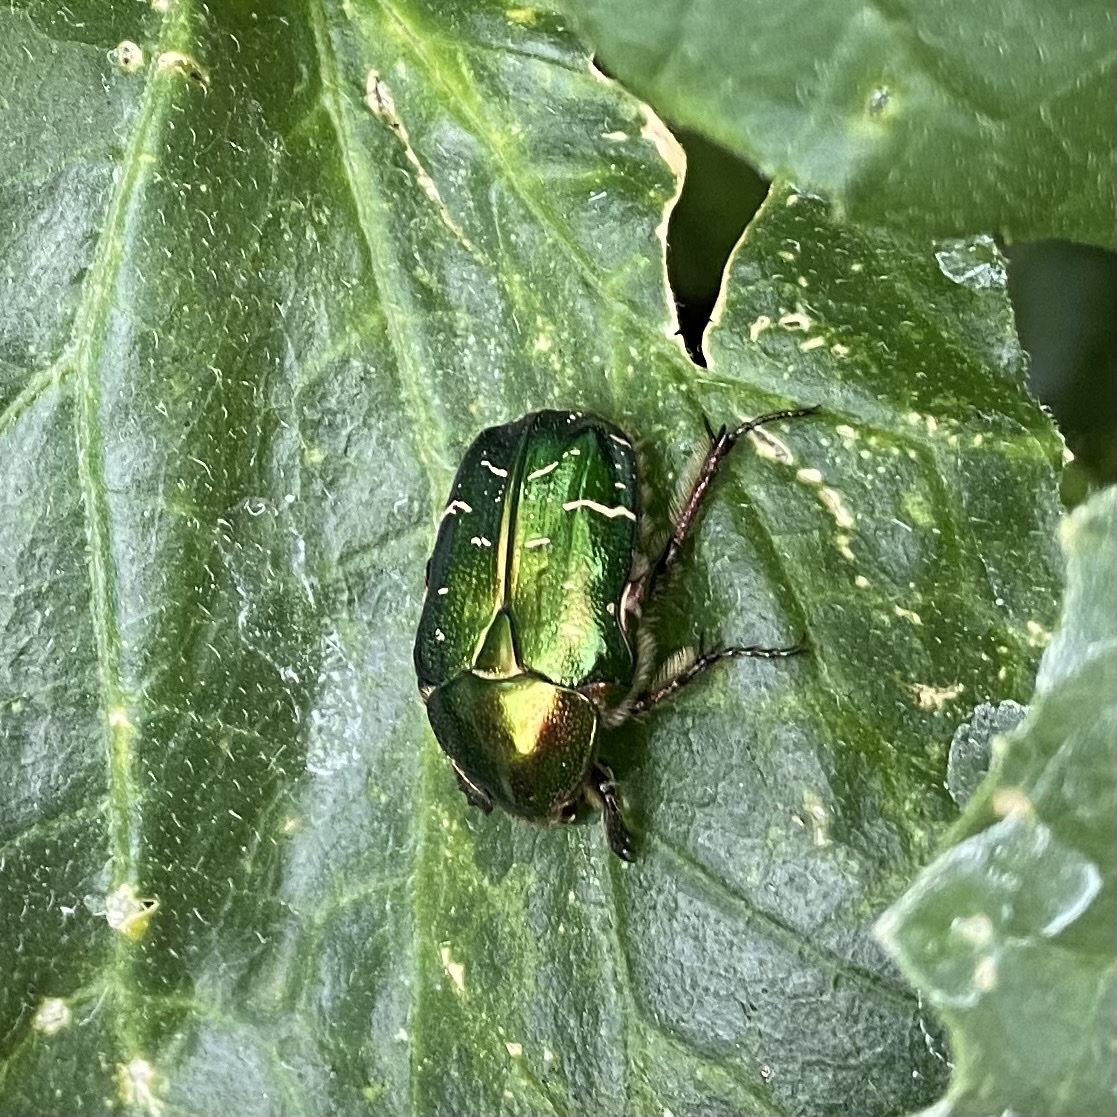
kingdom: Animalia
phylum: Arthropoda
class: Insecta
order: Coleoptera
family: Scarabaeidae
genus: Cetonia
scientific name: Cetonia aurata
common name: Rose chafer
